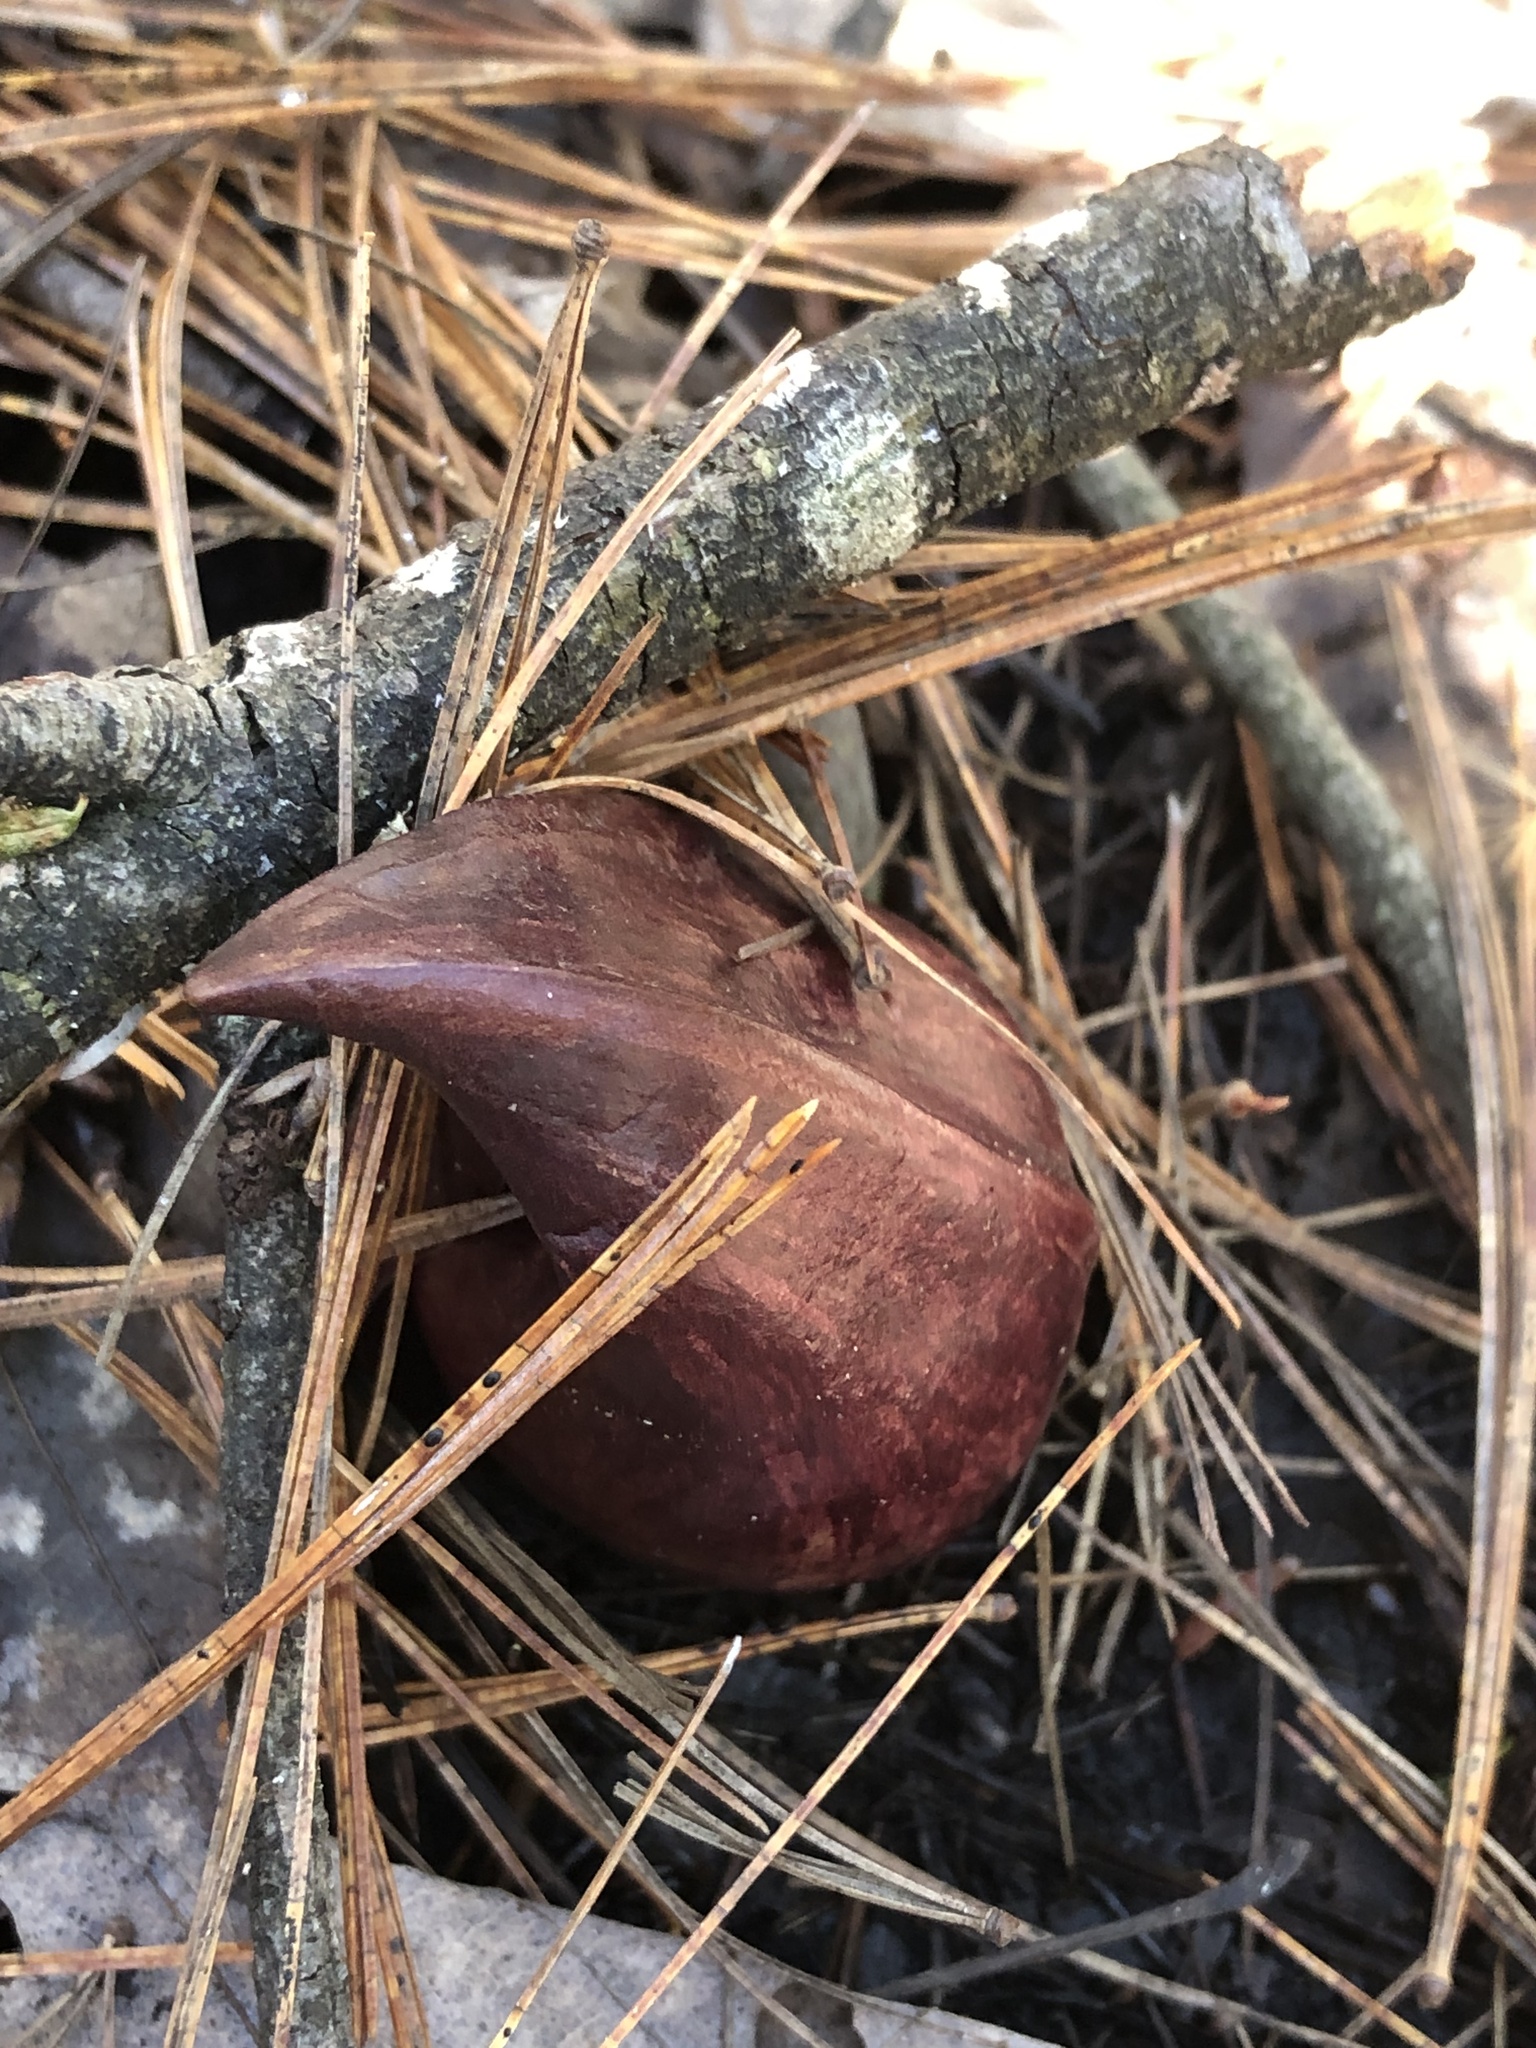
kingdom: Plantae
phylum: Tracheophyta
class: Liliopsida
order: Alismatales
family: Araceae
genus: Symplocarpus
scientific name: Symplocarpus foetidus
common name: Eastern skunk cabbage
